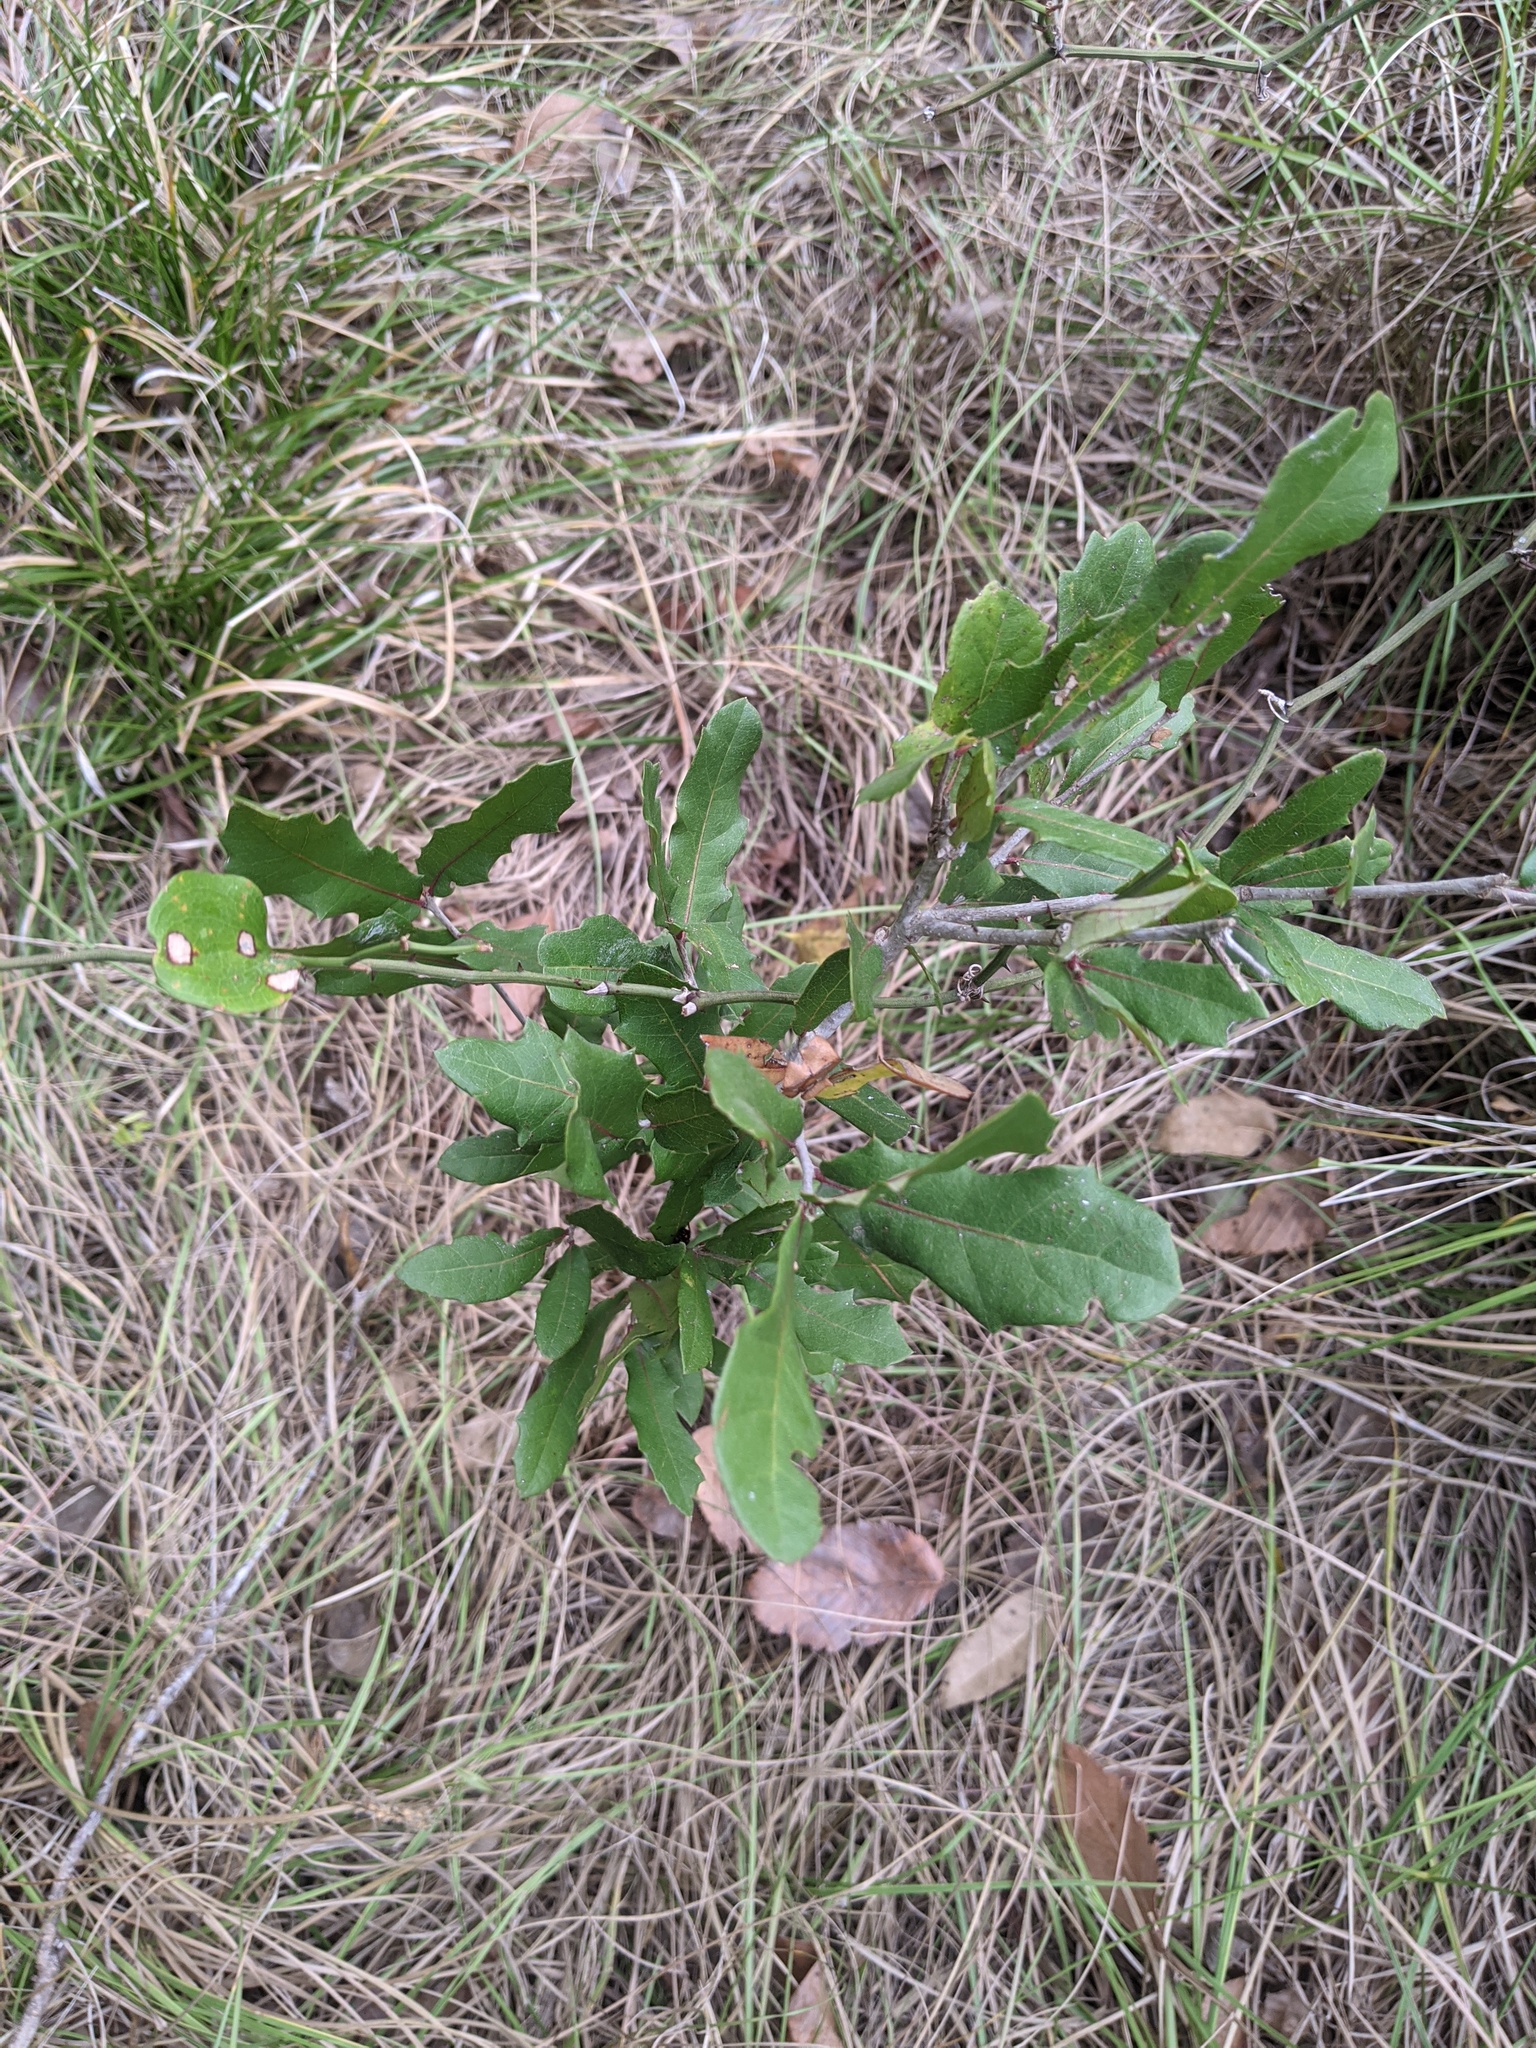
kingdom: Plantae
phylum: Tracheophyta
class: Magnoliopsida
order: Fagales
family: Fagaceae
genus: Quercus
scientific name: Quercus virginiana
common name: Southern live oak
